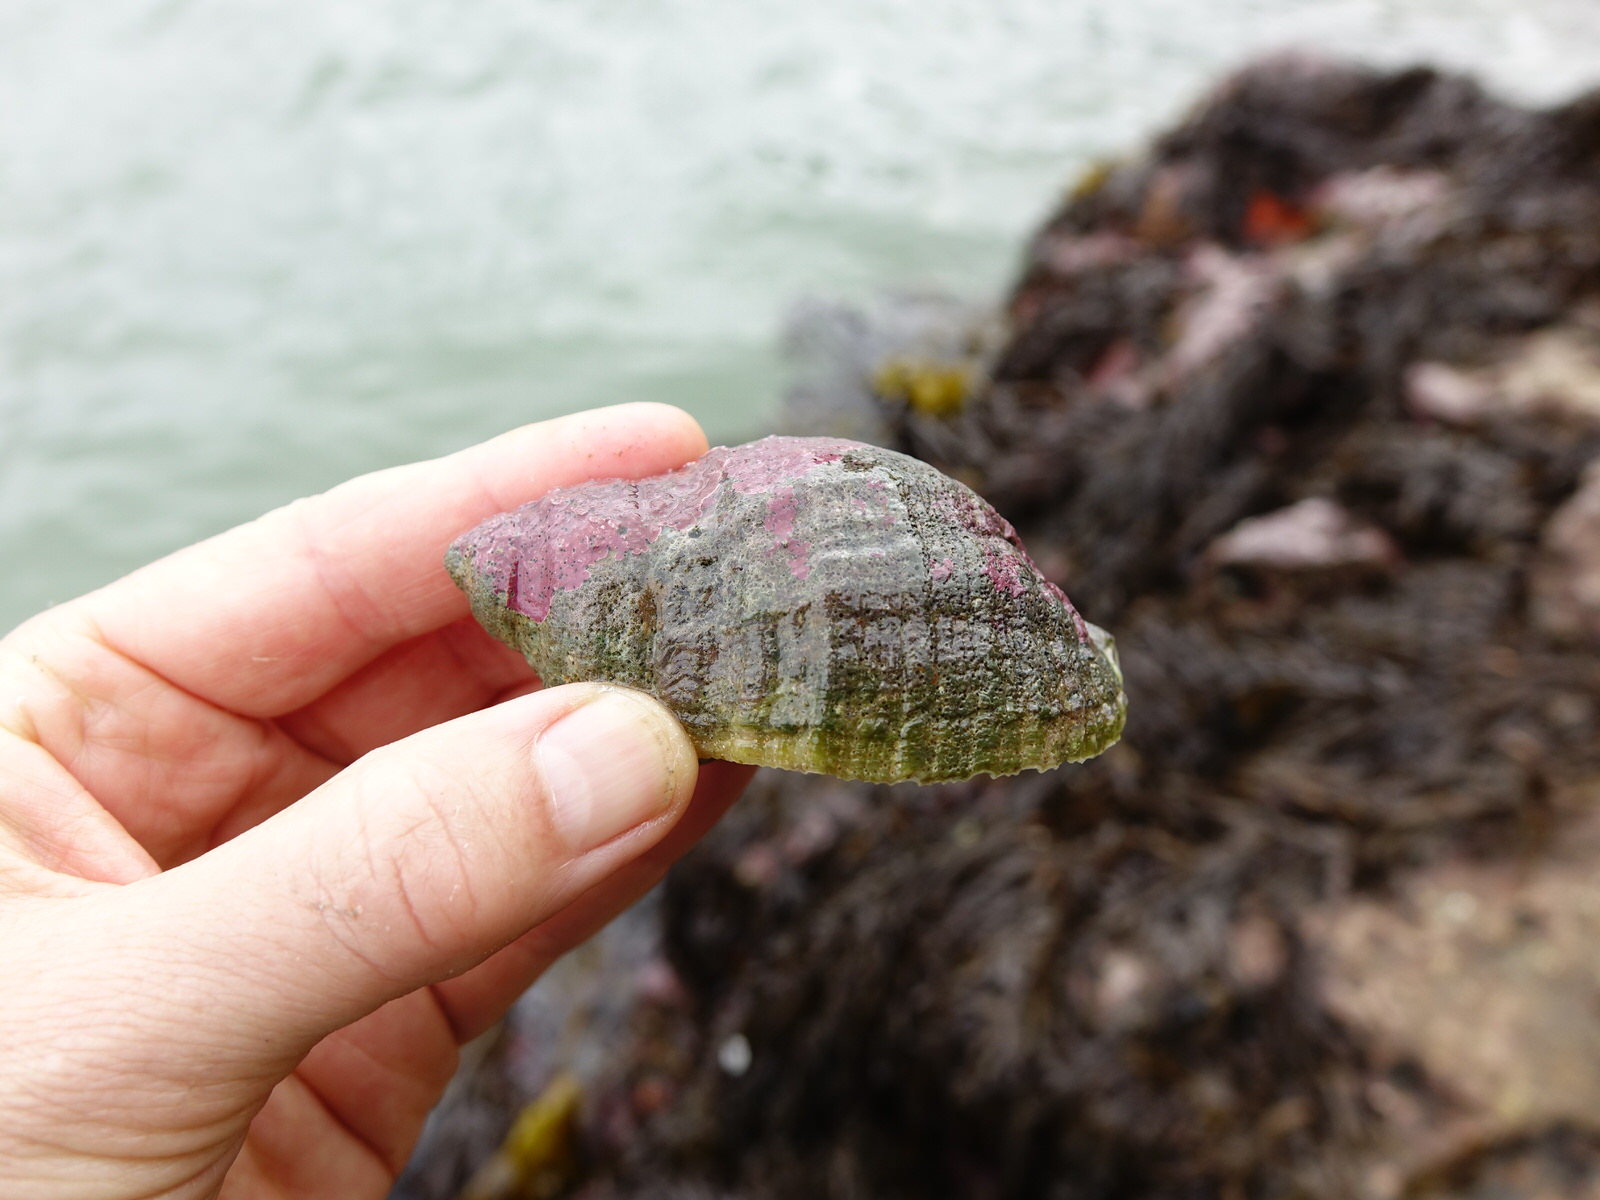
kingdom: Animalia
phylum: Mollusca
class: Gastropoda
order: Neogastropoda
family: Muricidae
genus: Dicathais
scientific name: Dicathais orbita
